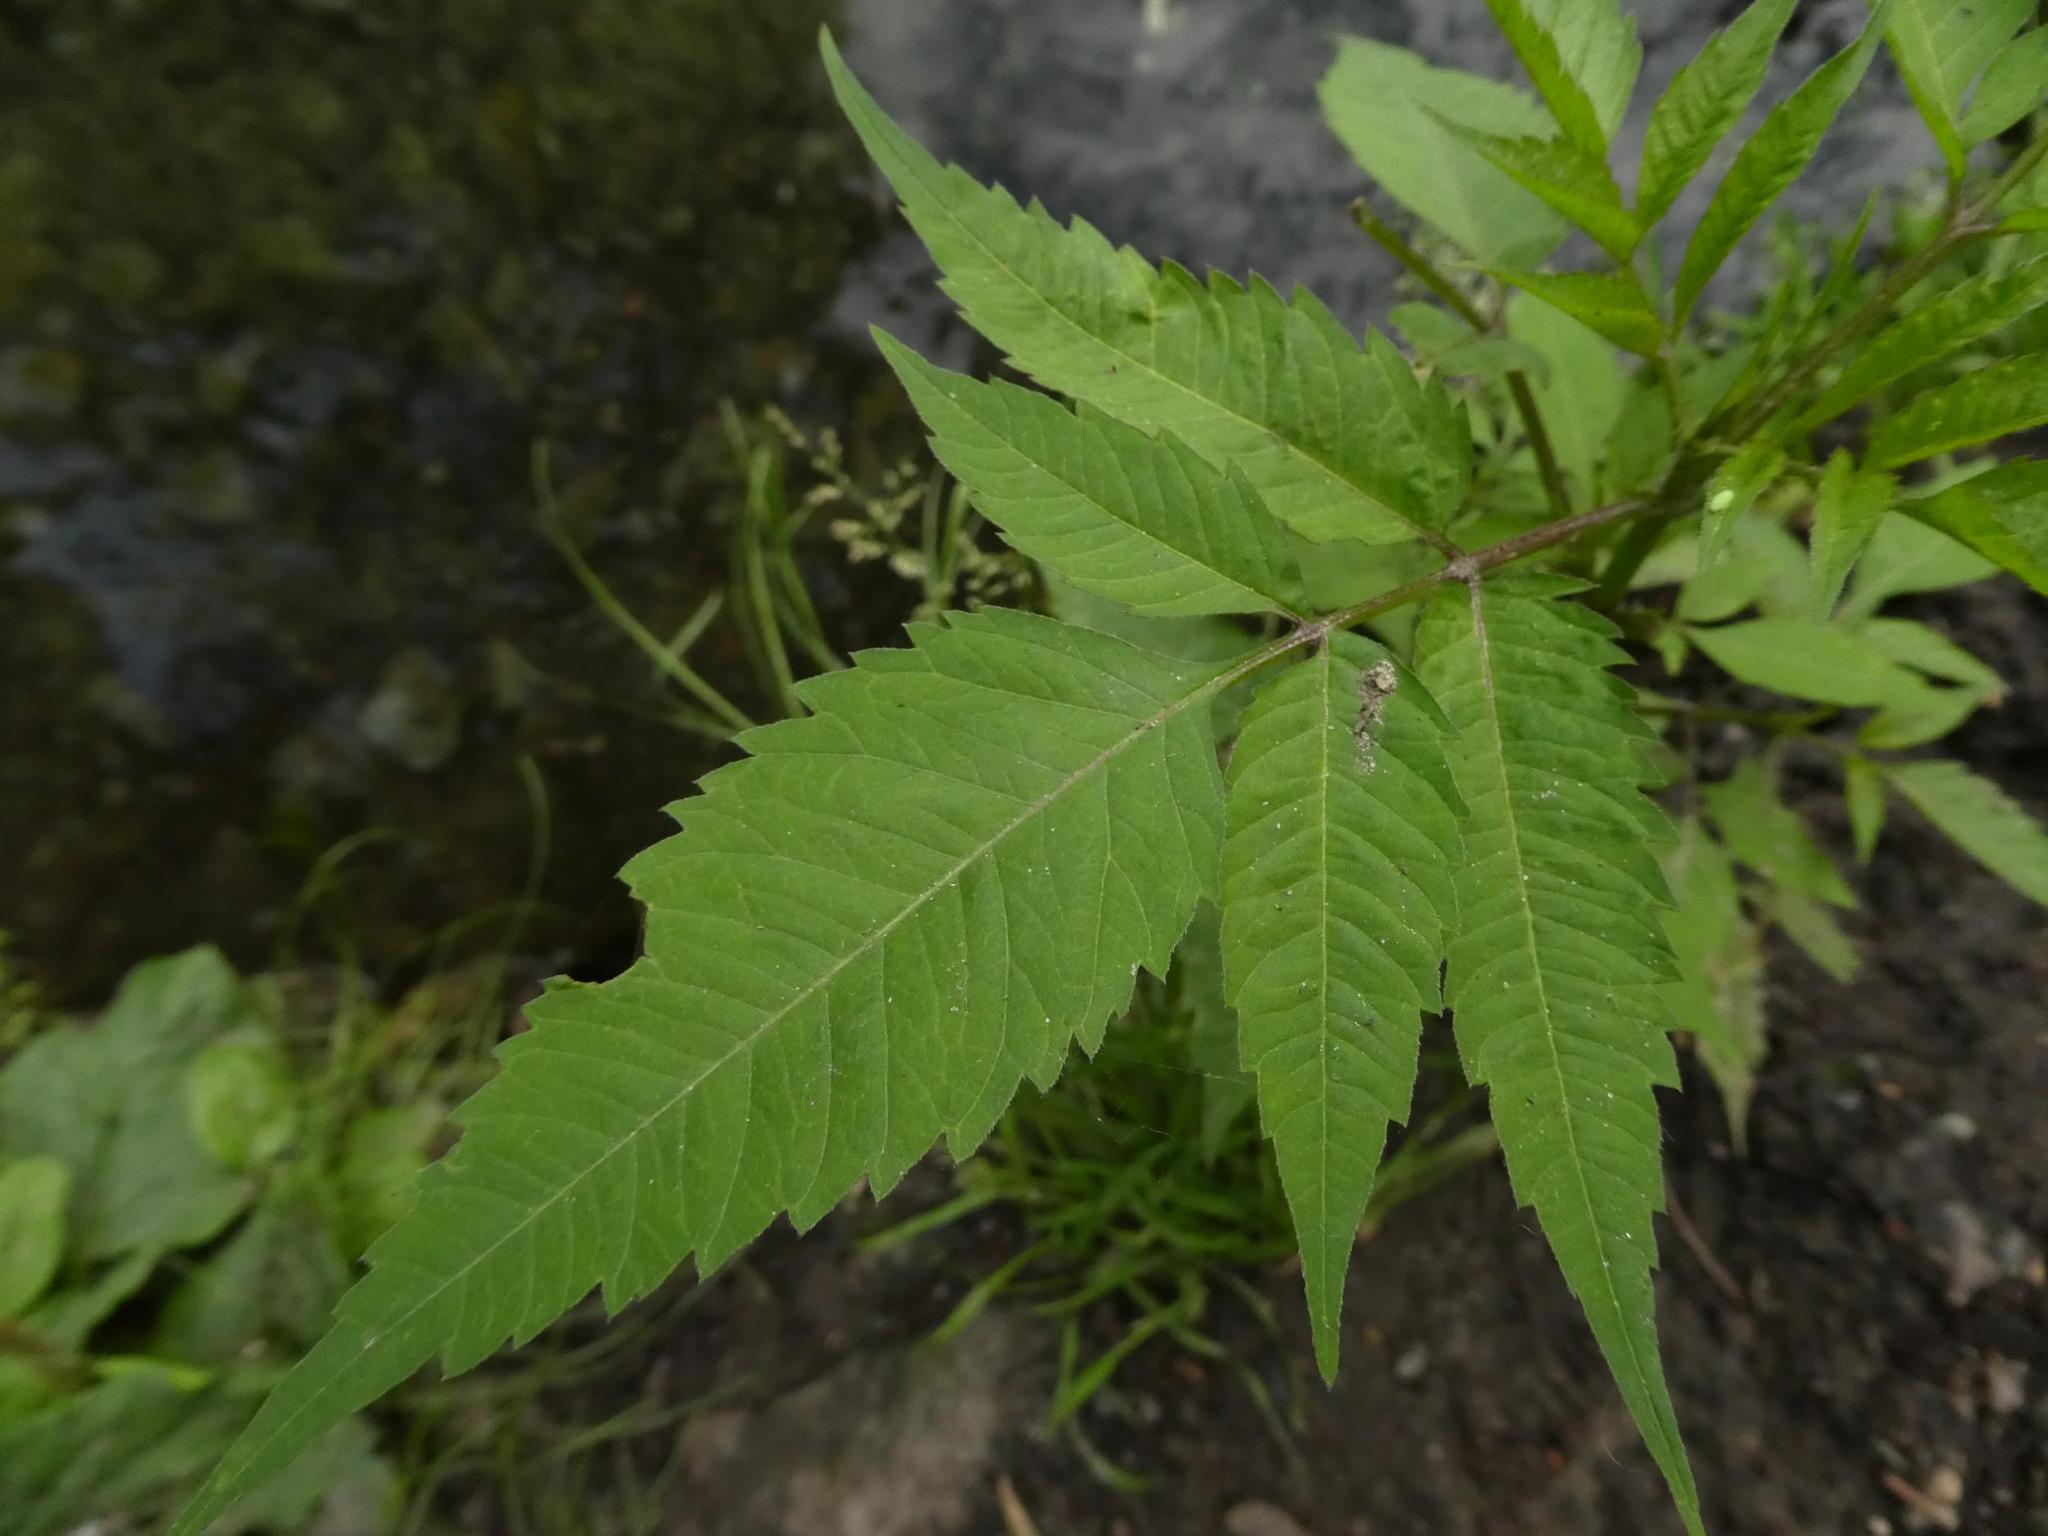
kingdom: Plantae
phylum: Tracheophyta
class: Magnoliopsida
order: Asterales
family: Asteraceae
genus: Bidens
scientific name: Bidens frondosa
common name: Beggarticks
